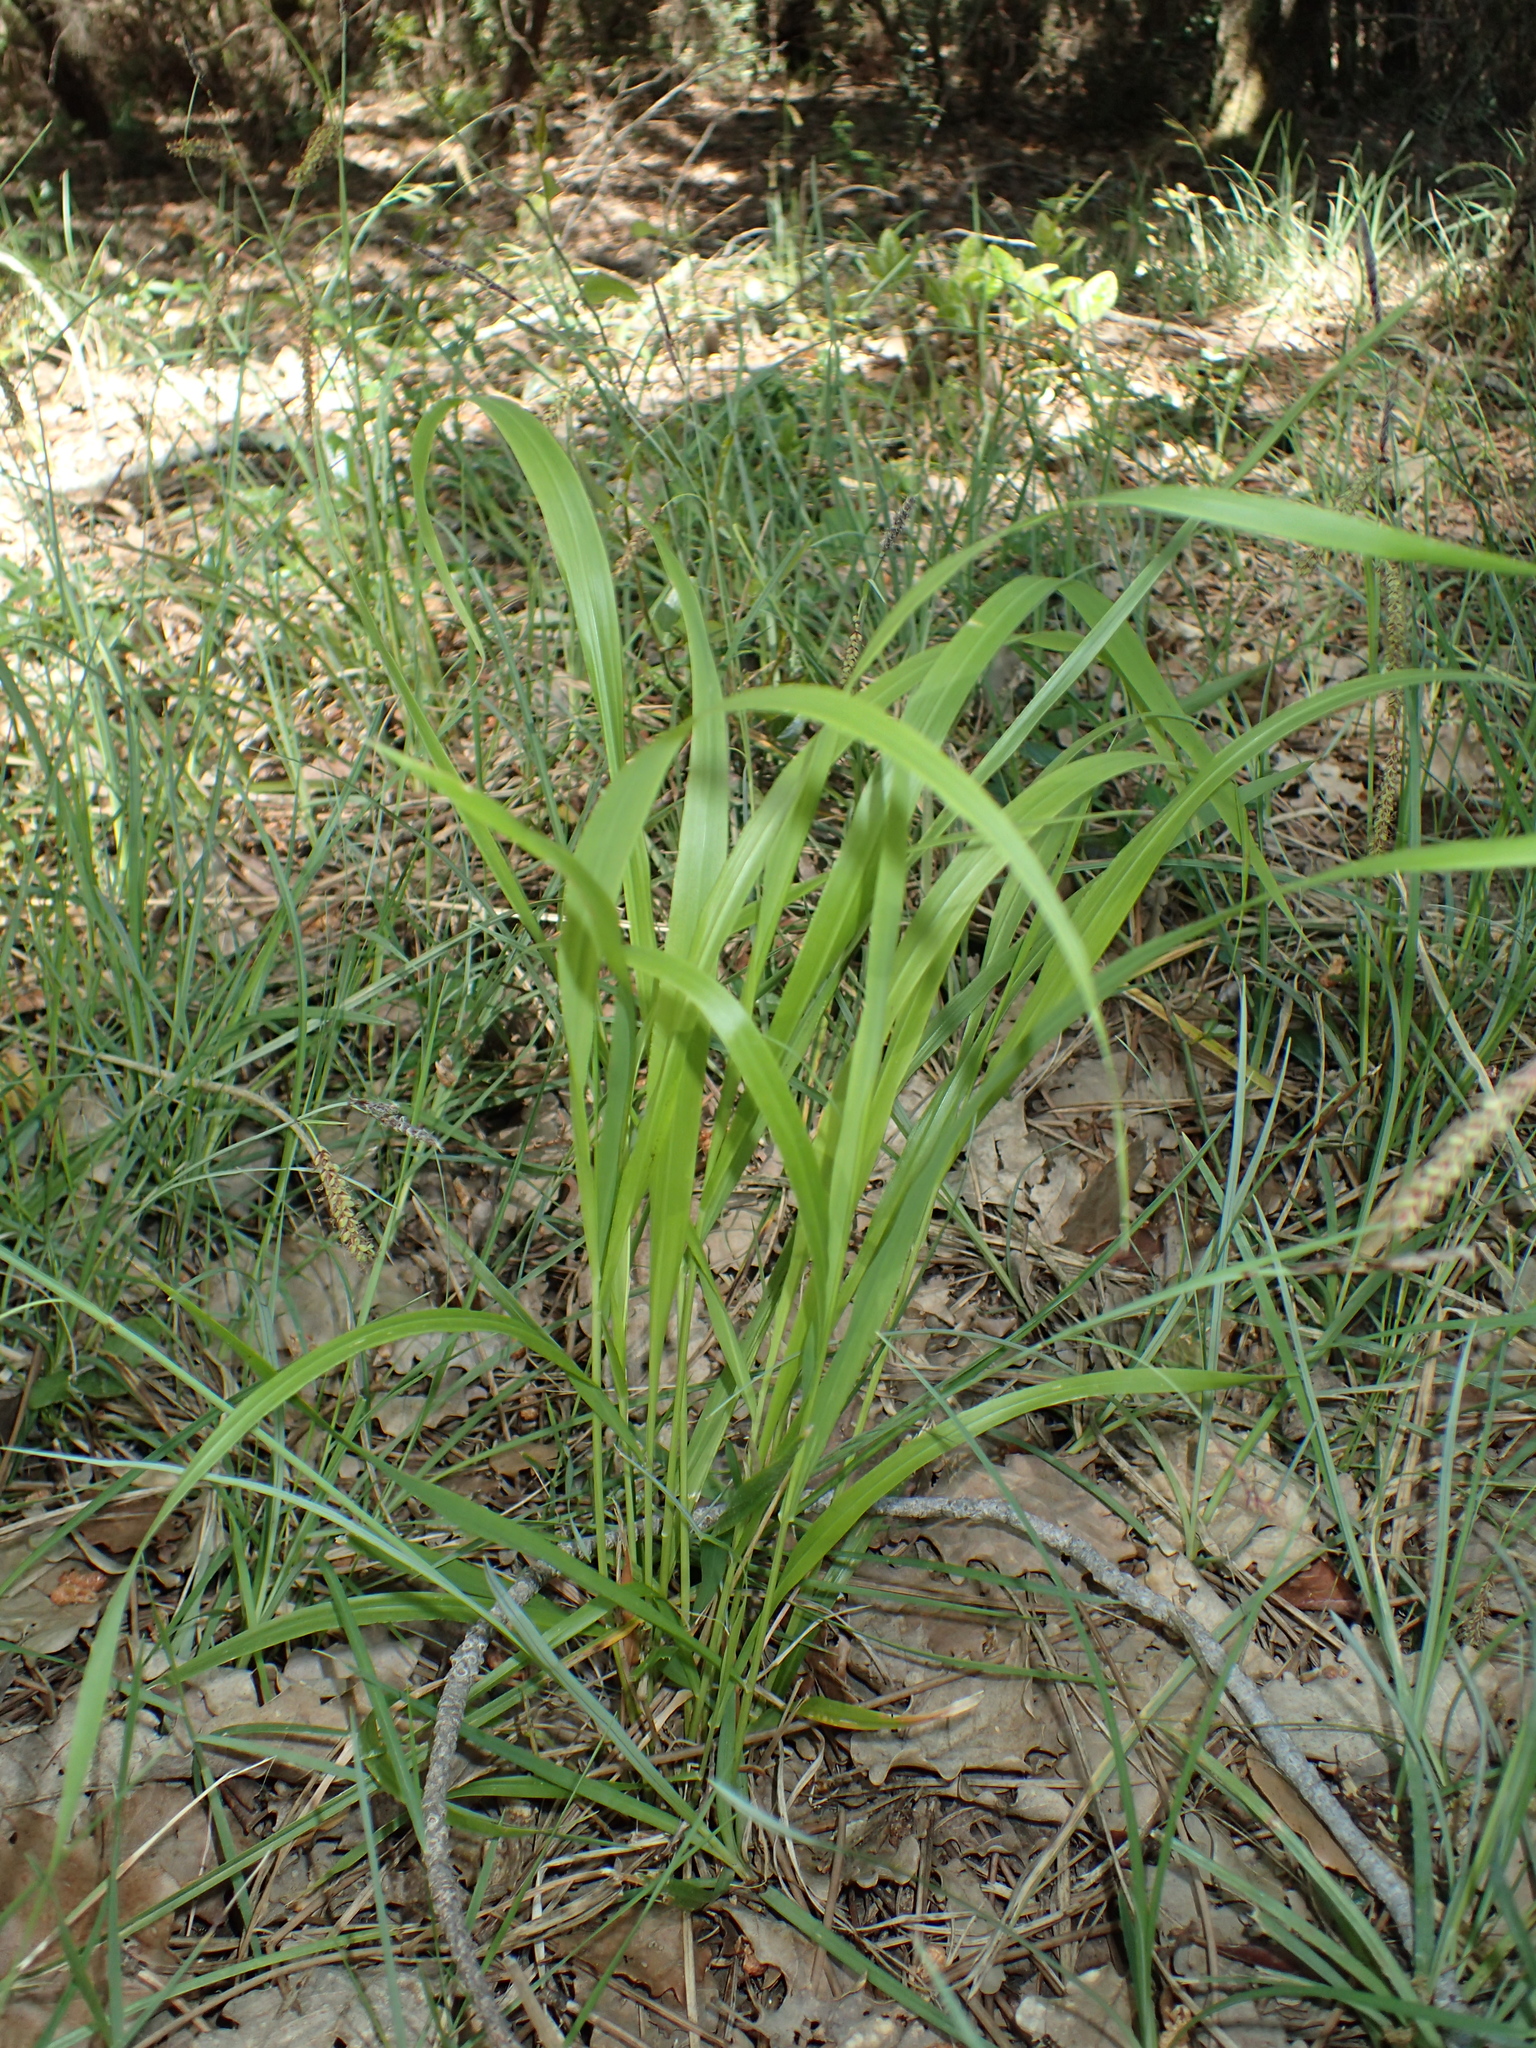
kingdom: Plantae
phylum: Tracheophyta
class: Liliopsida
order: Poales
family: Poaceae
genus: Brachypodium
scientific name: Brachypodium sylvaticum
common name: False-brome
